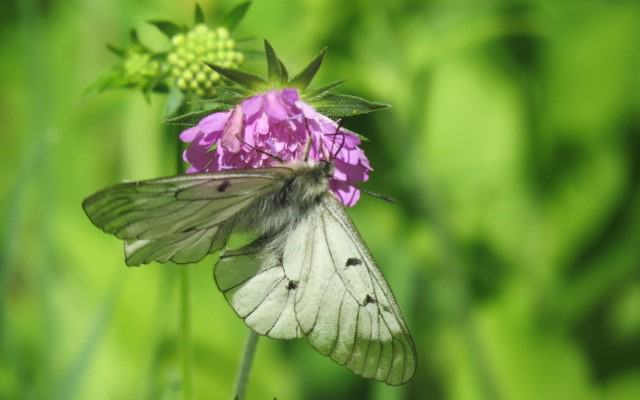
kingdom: Animalia
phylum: Arthropoda
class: Insecta
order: Lepidoptera
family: Papilionidae
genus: Parnassius
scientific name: Parnassius mnemosyne
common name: Clouded apollo
